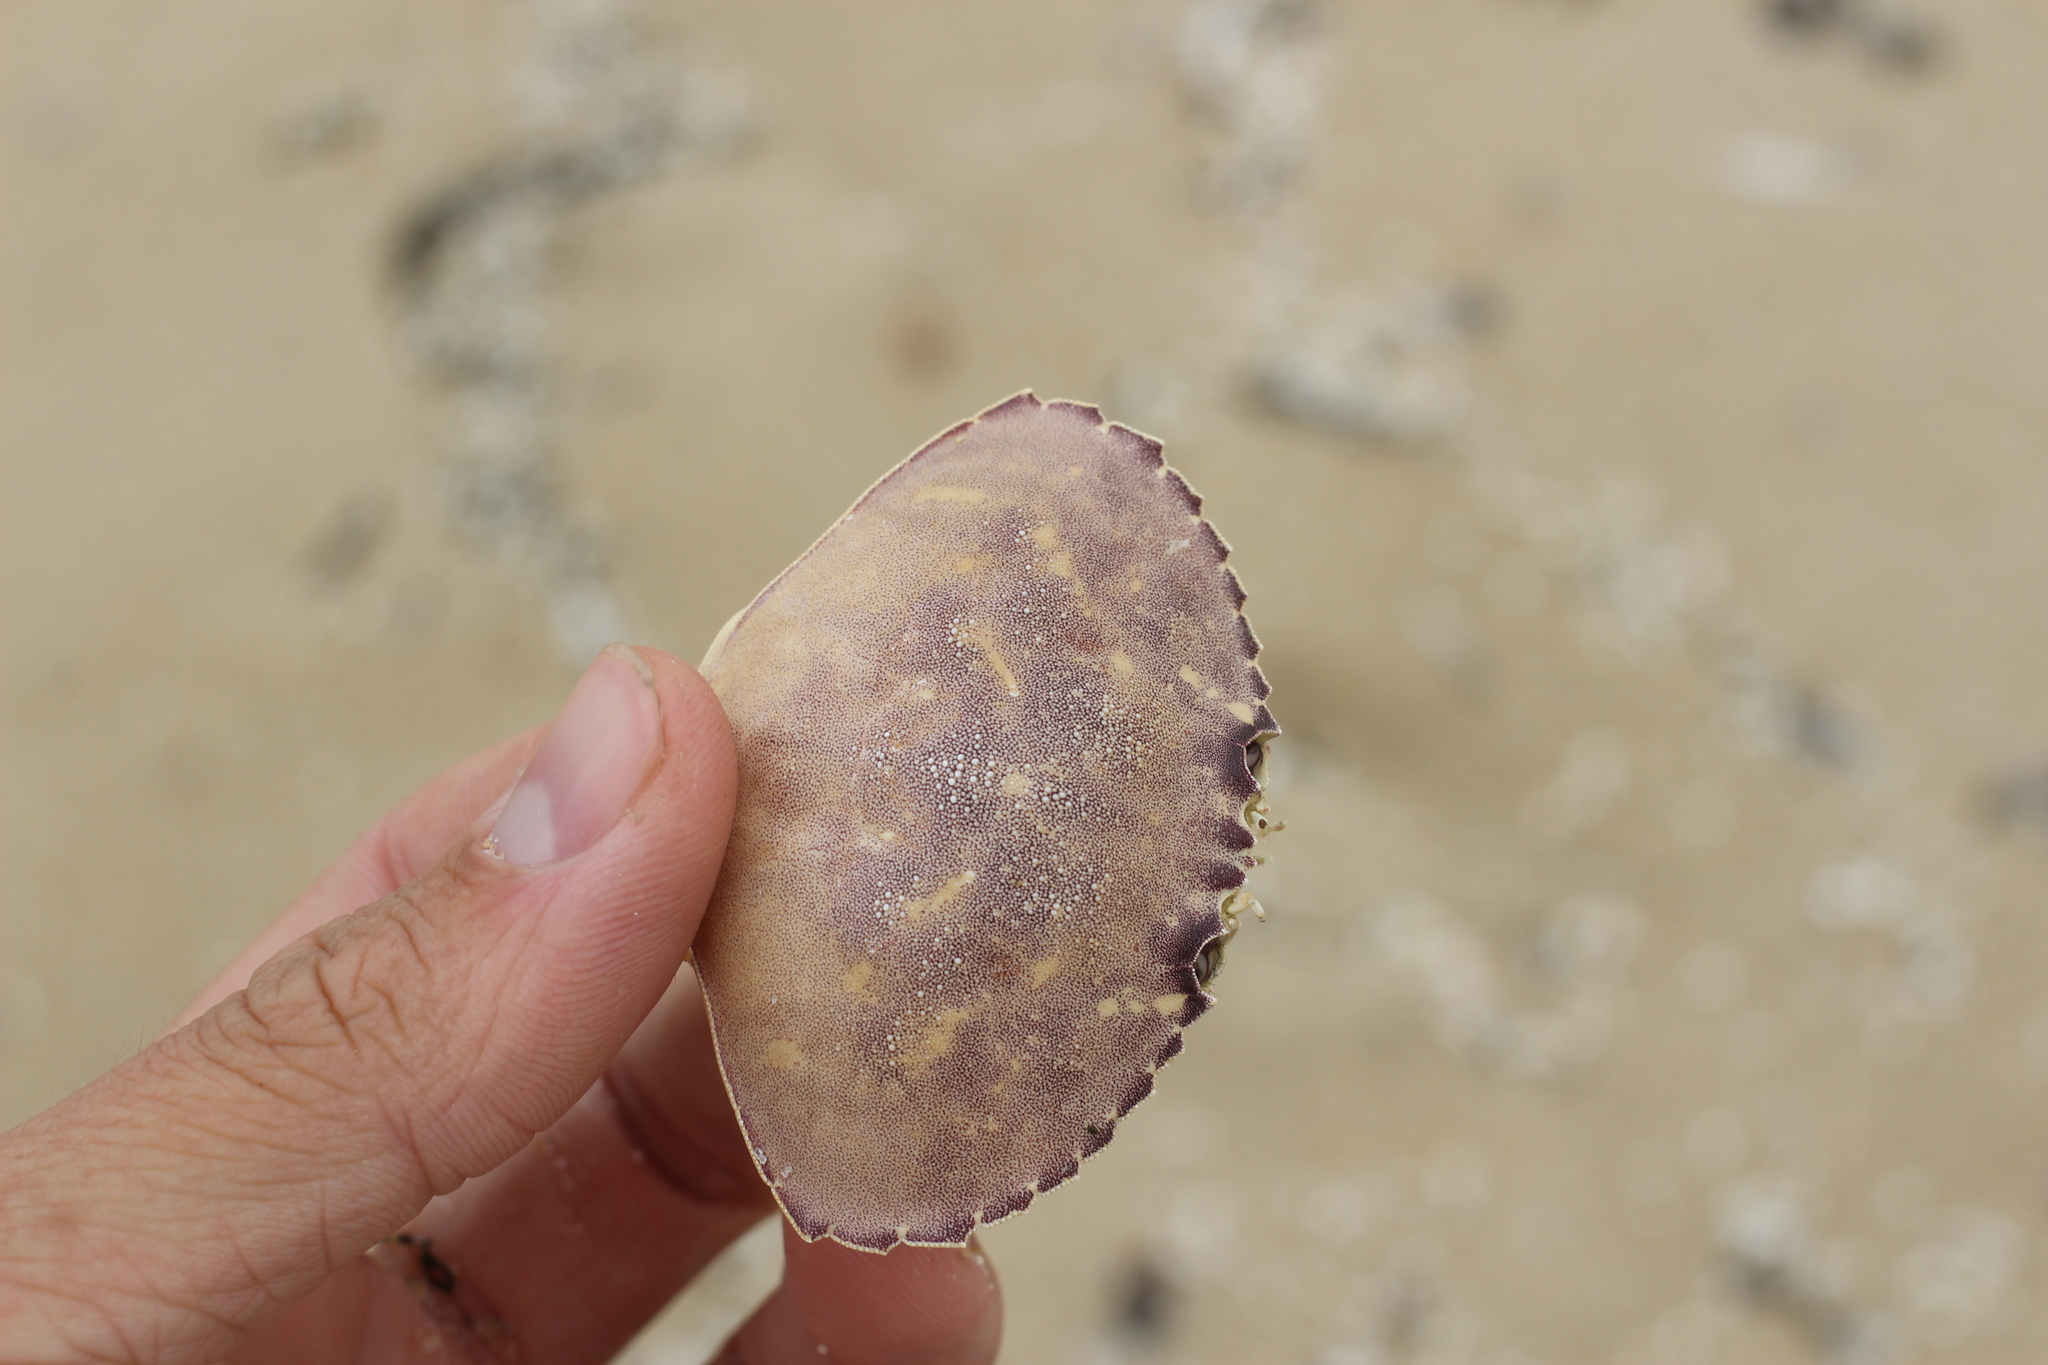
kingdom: Animalia
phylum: Arthropoda
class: Malacostraca
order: Decapoda
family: Cancridae
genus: Metacarcinus
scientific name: Metacarcinus gracilis
